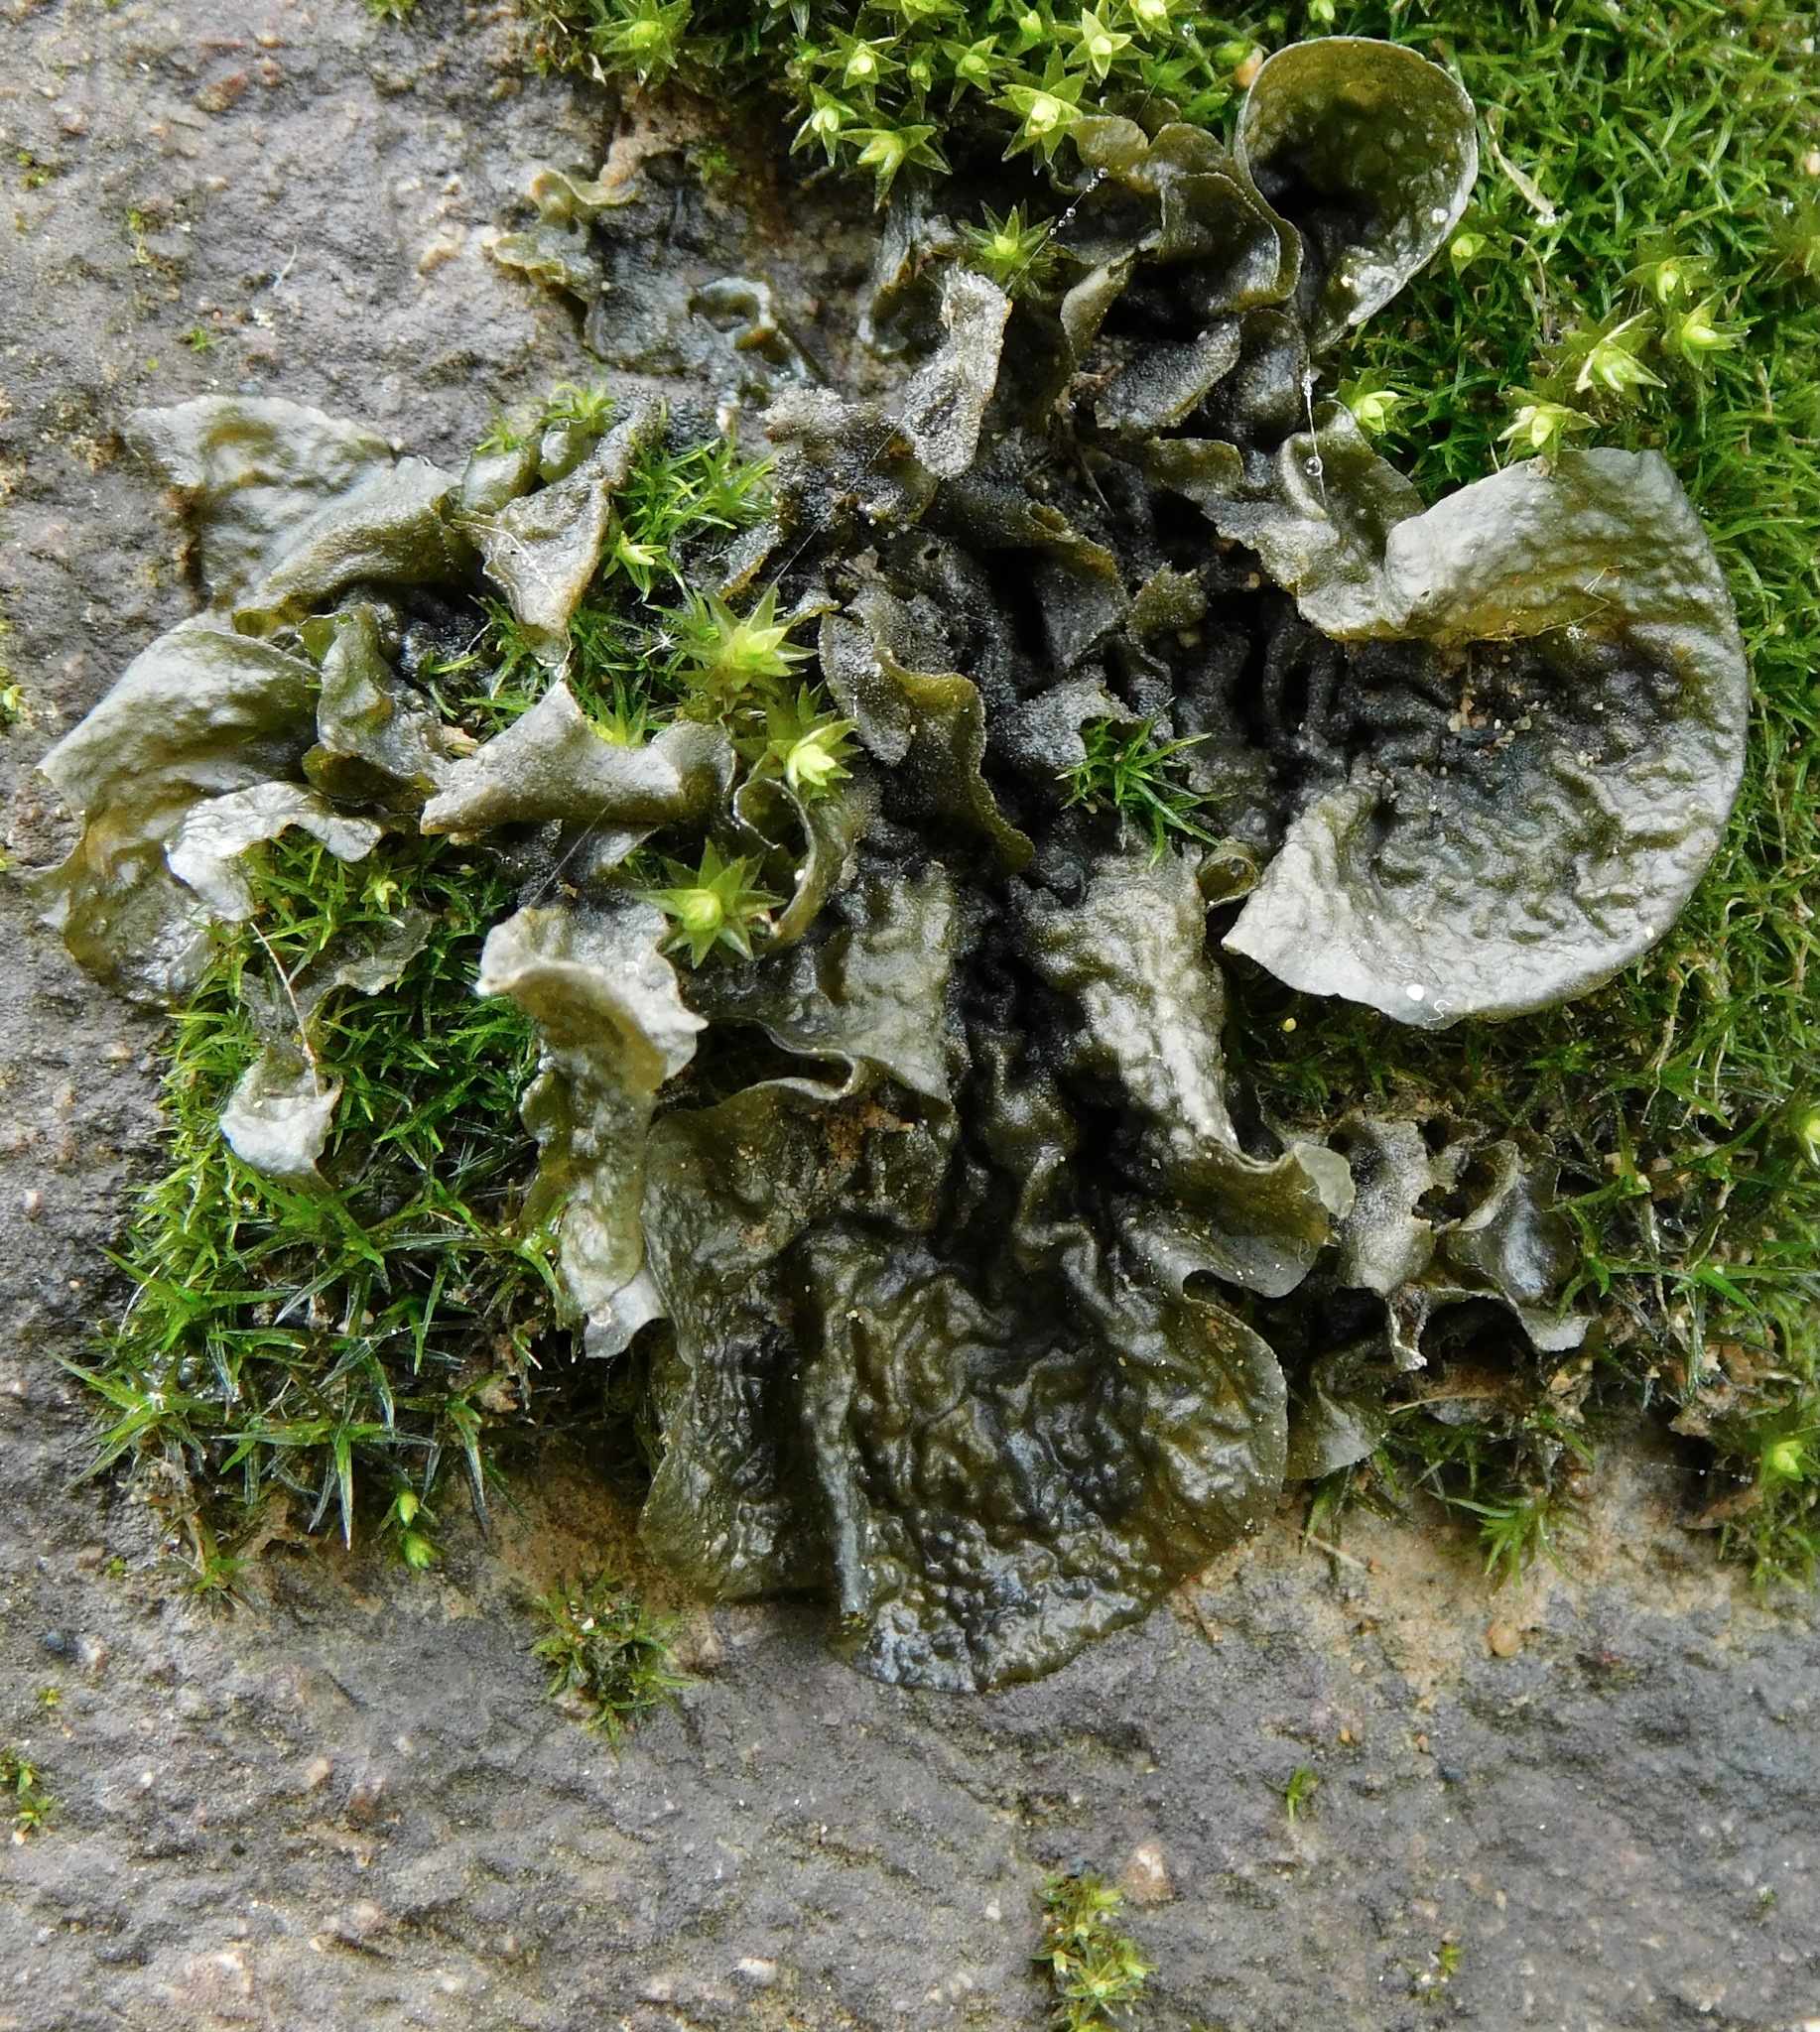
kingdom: Fungi
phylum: Ascomycota
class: Lecanoromycetes
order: Peltigerales
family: Collemataceae
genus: Collema
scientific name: Collema furfuraceum
